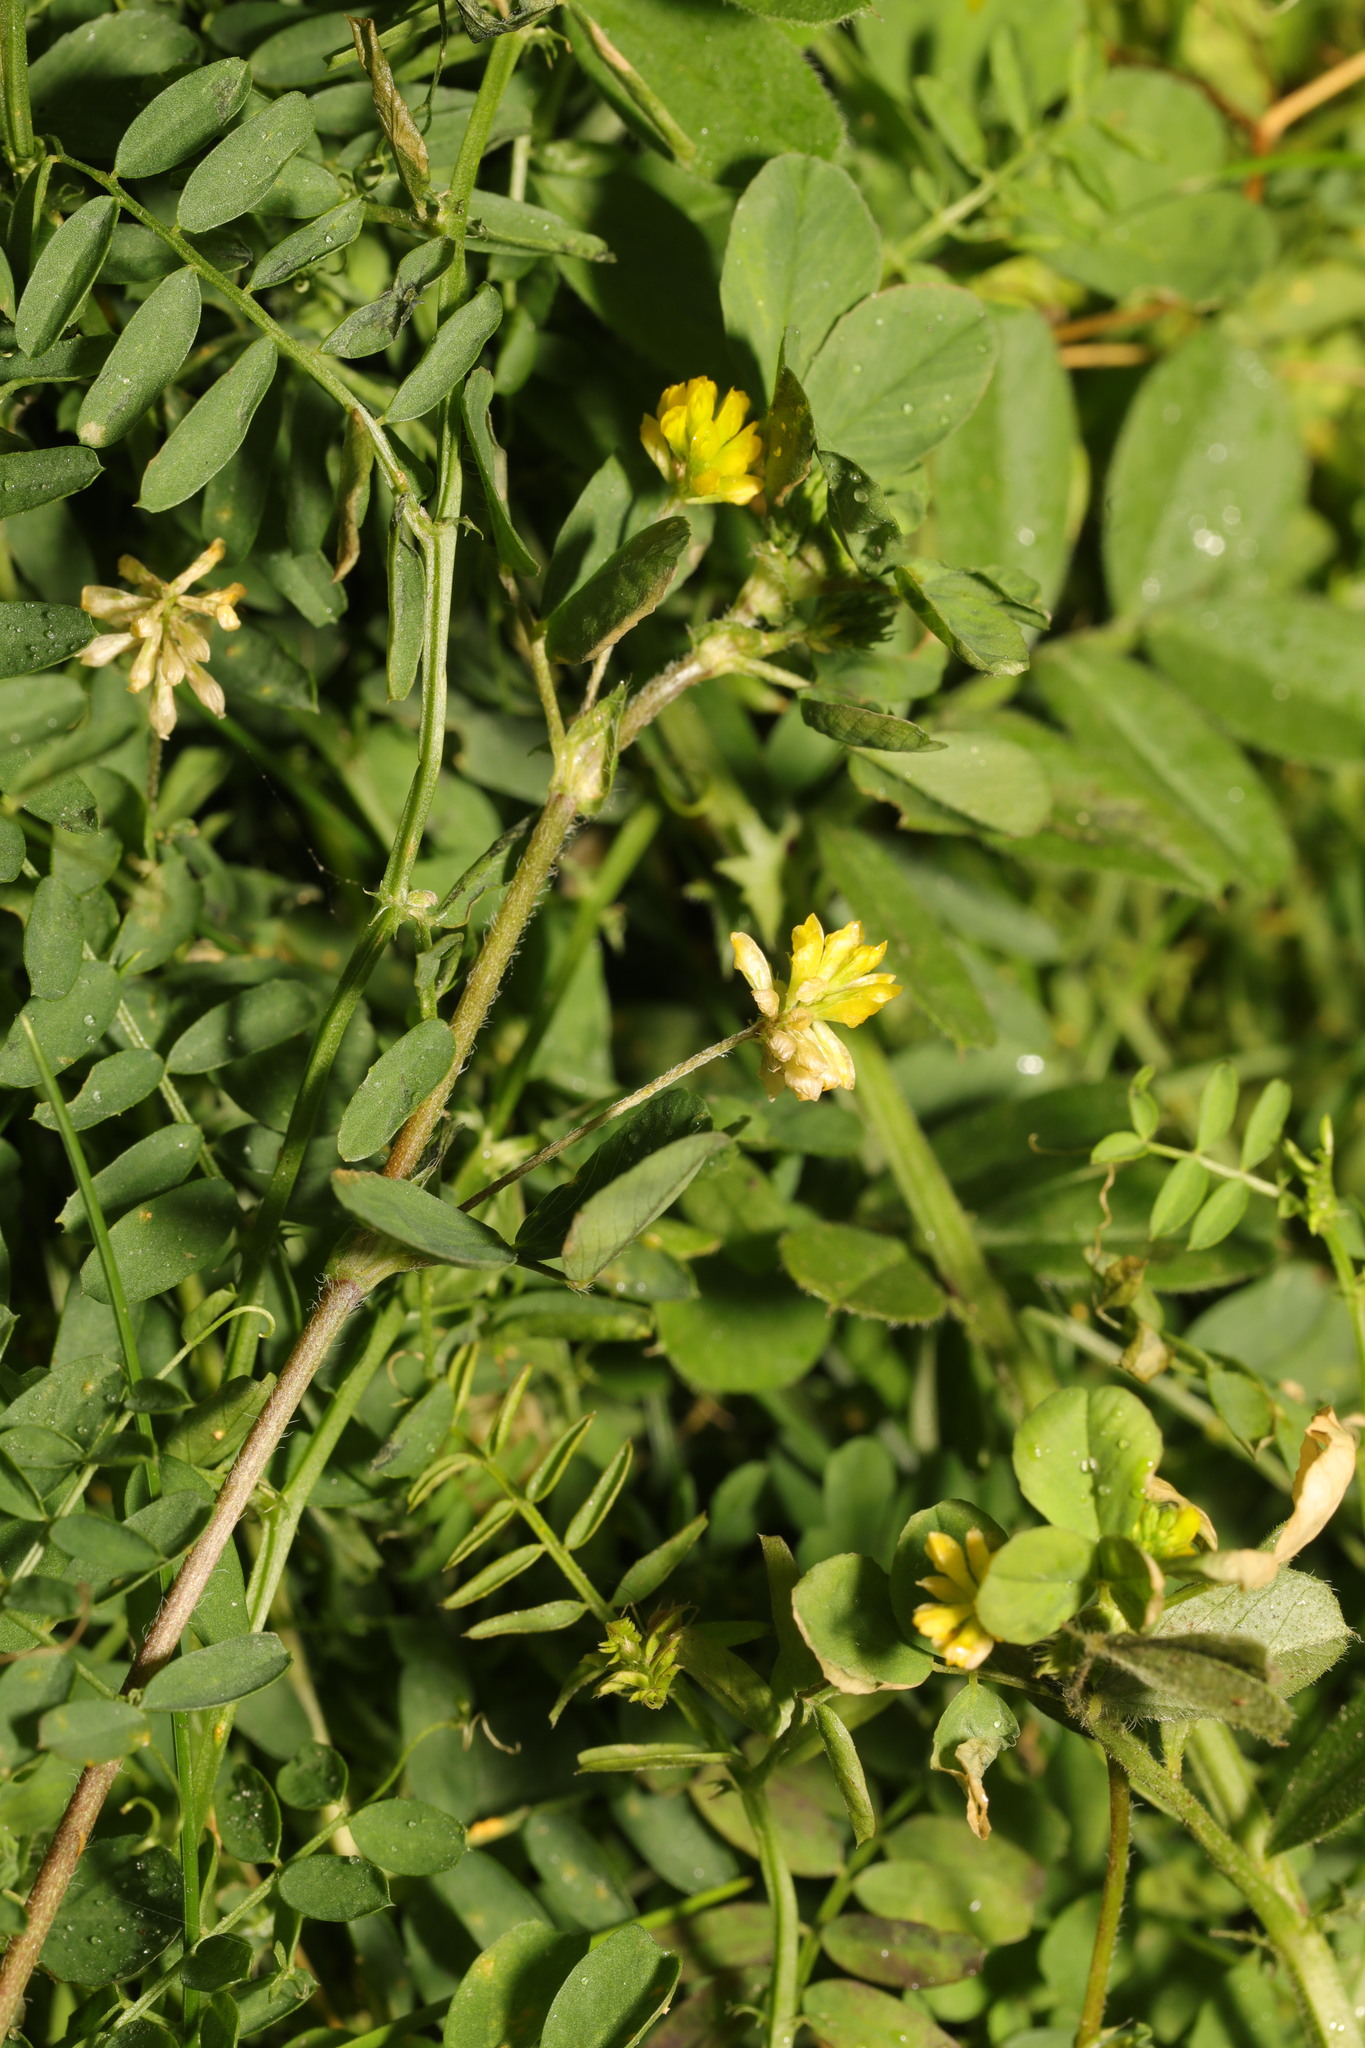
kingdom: Plantae
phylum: Tracheophyta
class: Magnoliopsida
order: Fabales
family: Fabaceae
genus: Trifolium
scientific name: Trifolium dubium
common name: Suckling clover
